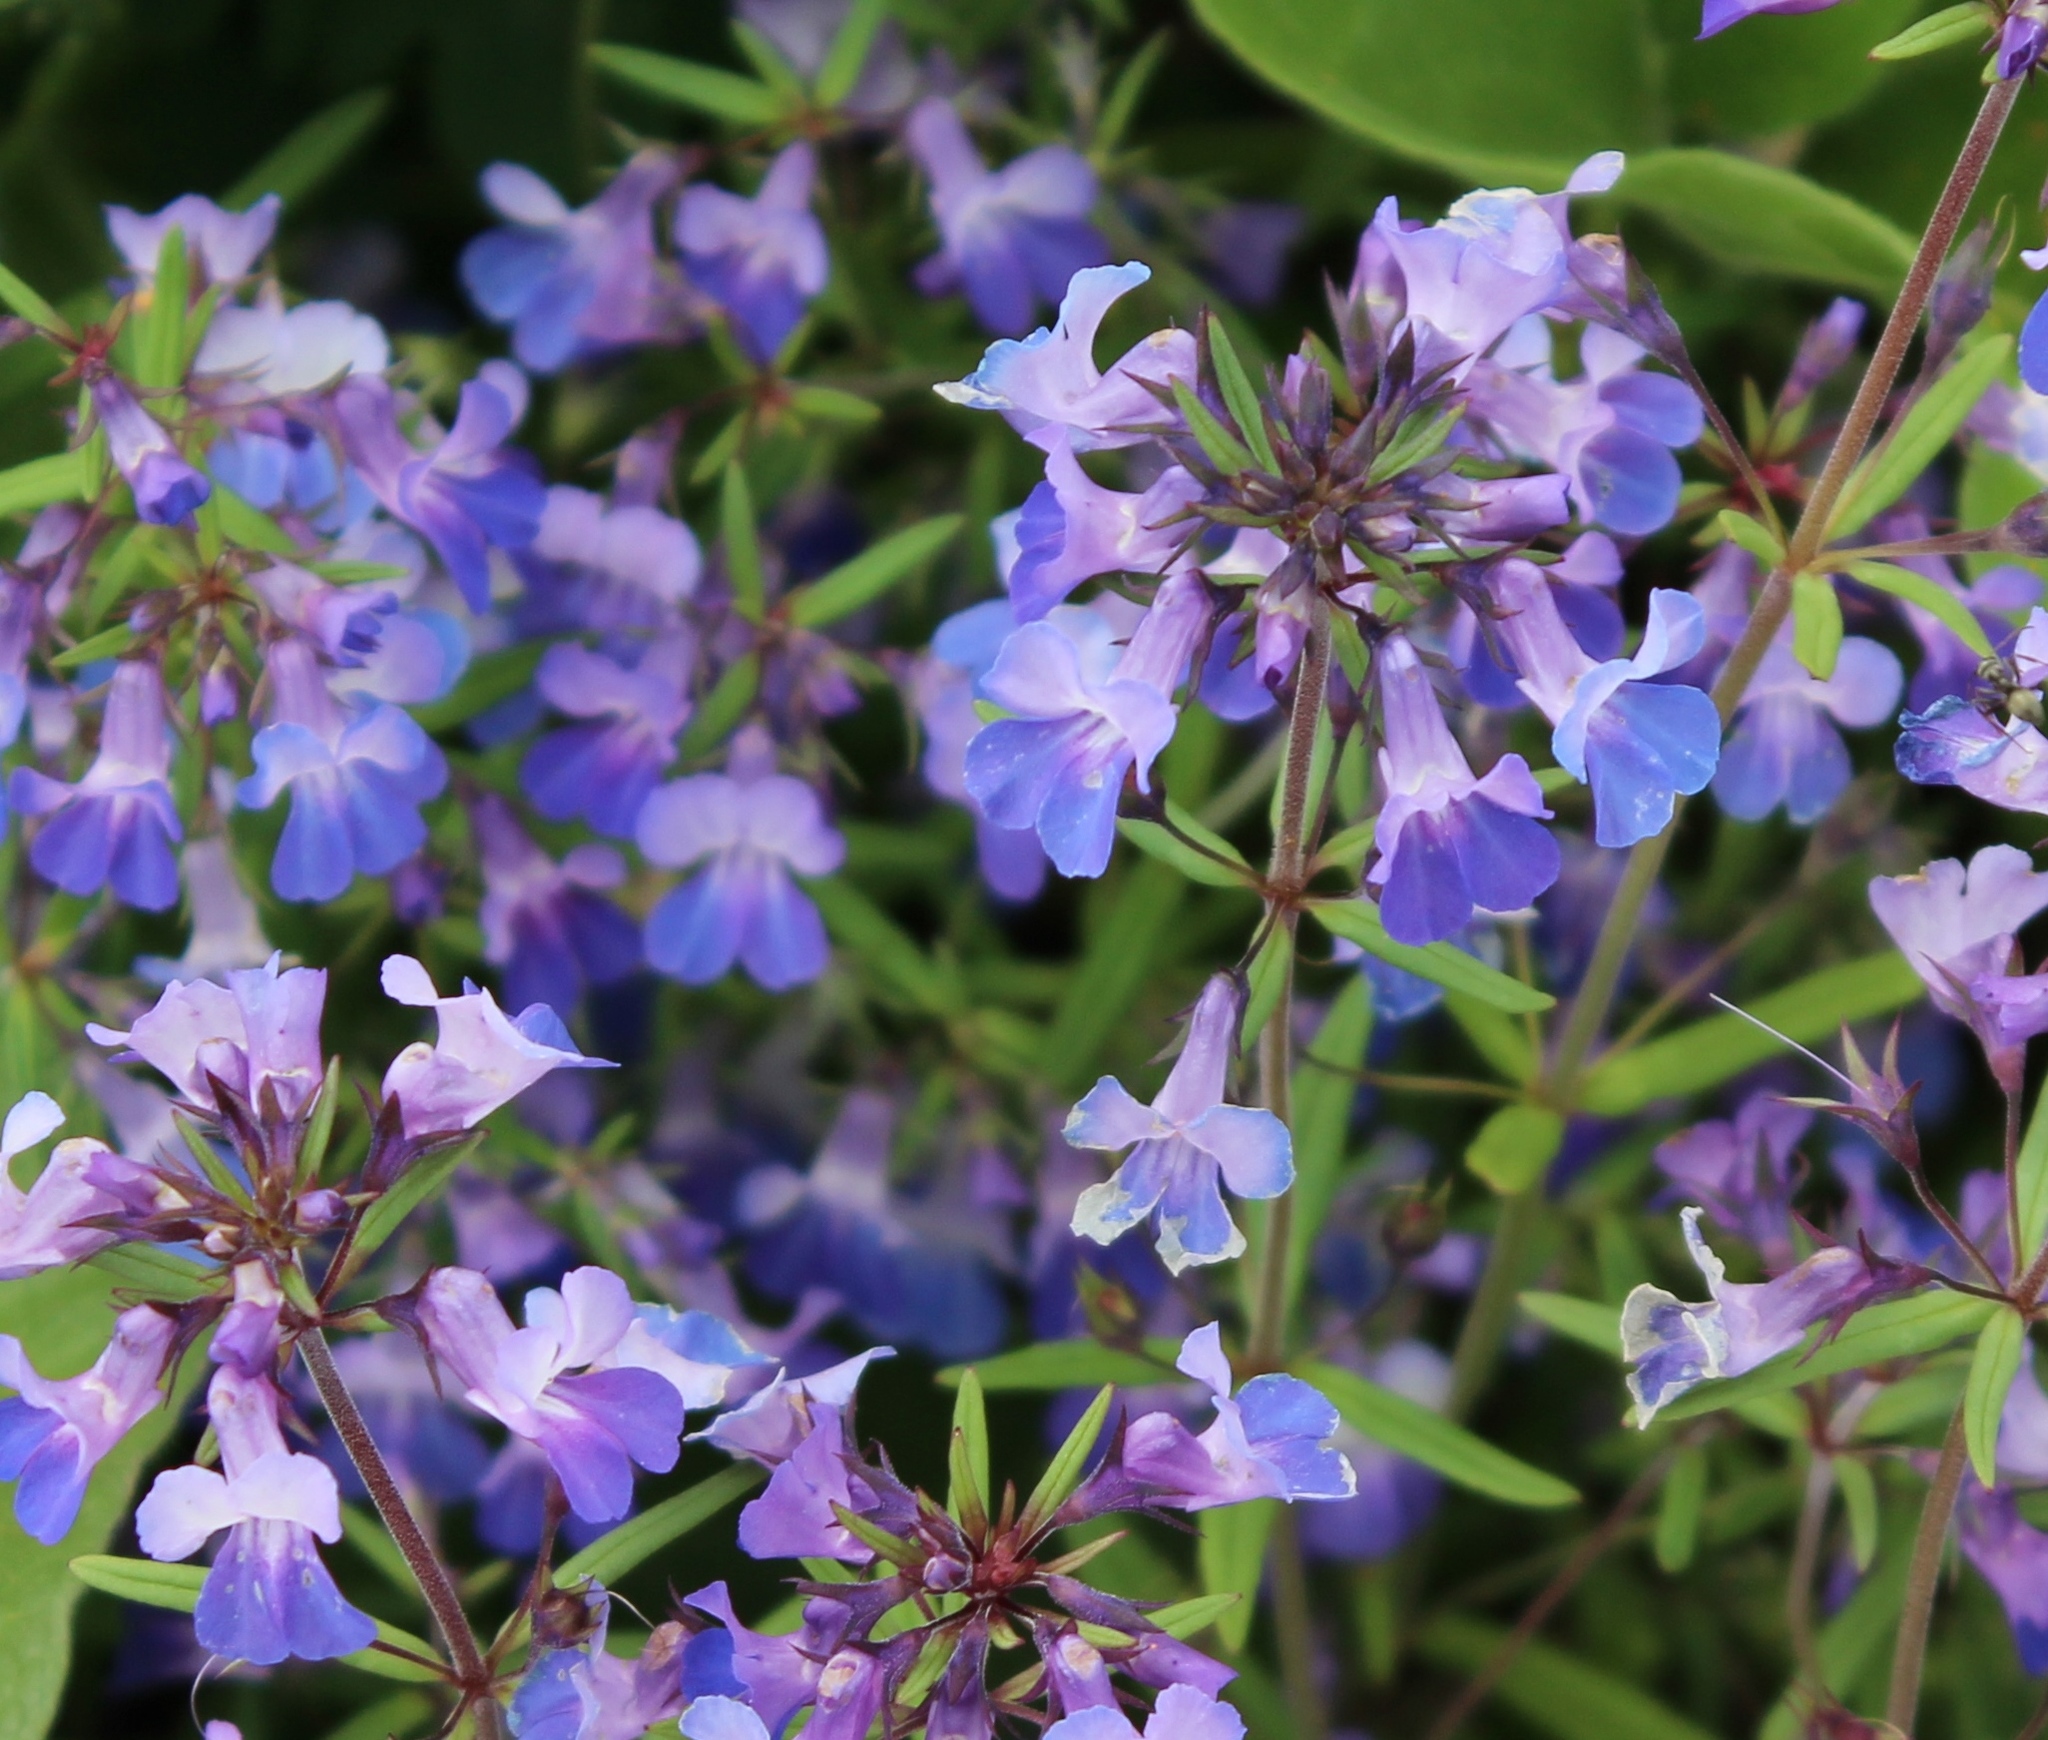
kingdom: Plantae
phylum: Tracheophyta
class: Magnoliopsida
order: Lamiales
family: Plantaginaceae
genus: Collinsia
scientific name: Collinsia grandiflora
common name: Large-flower blue-eyed-mary
